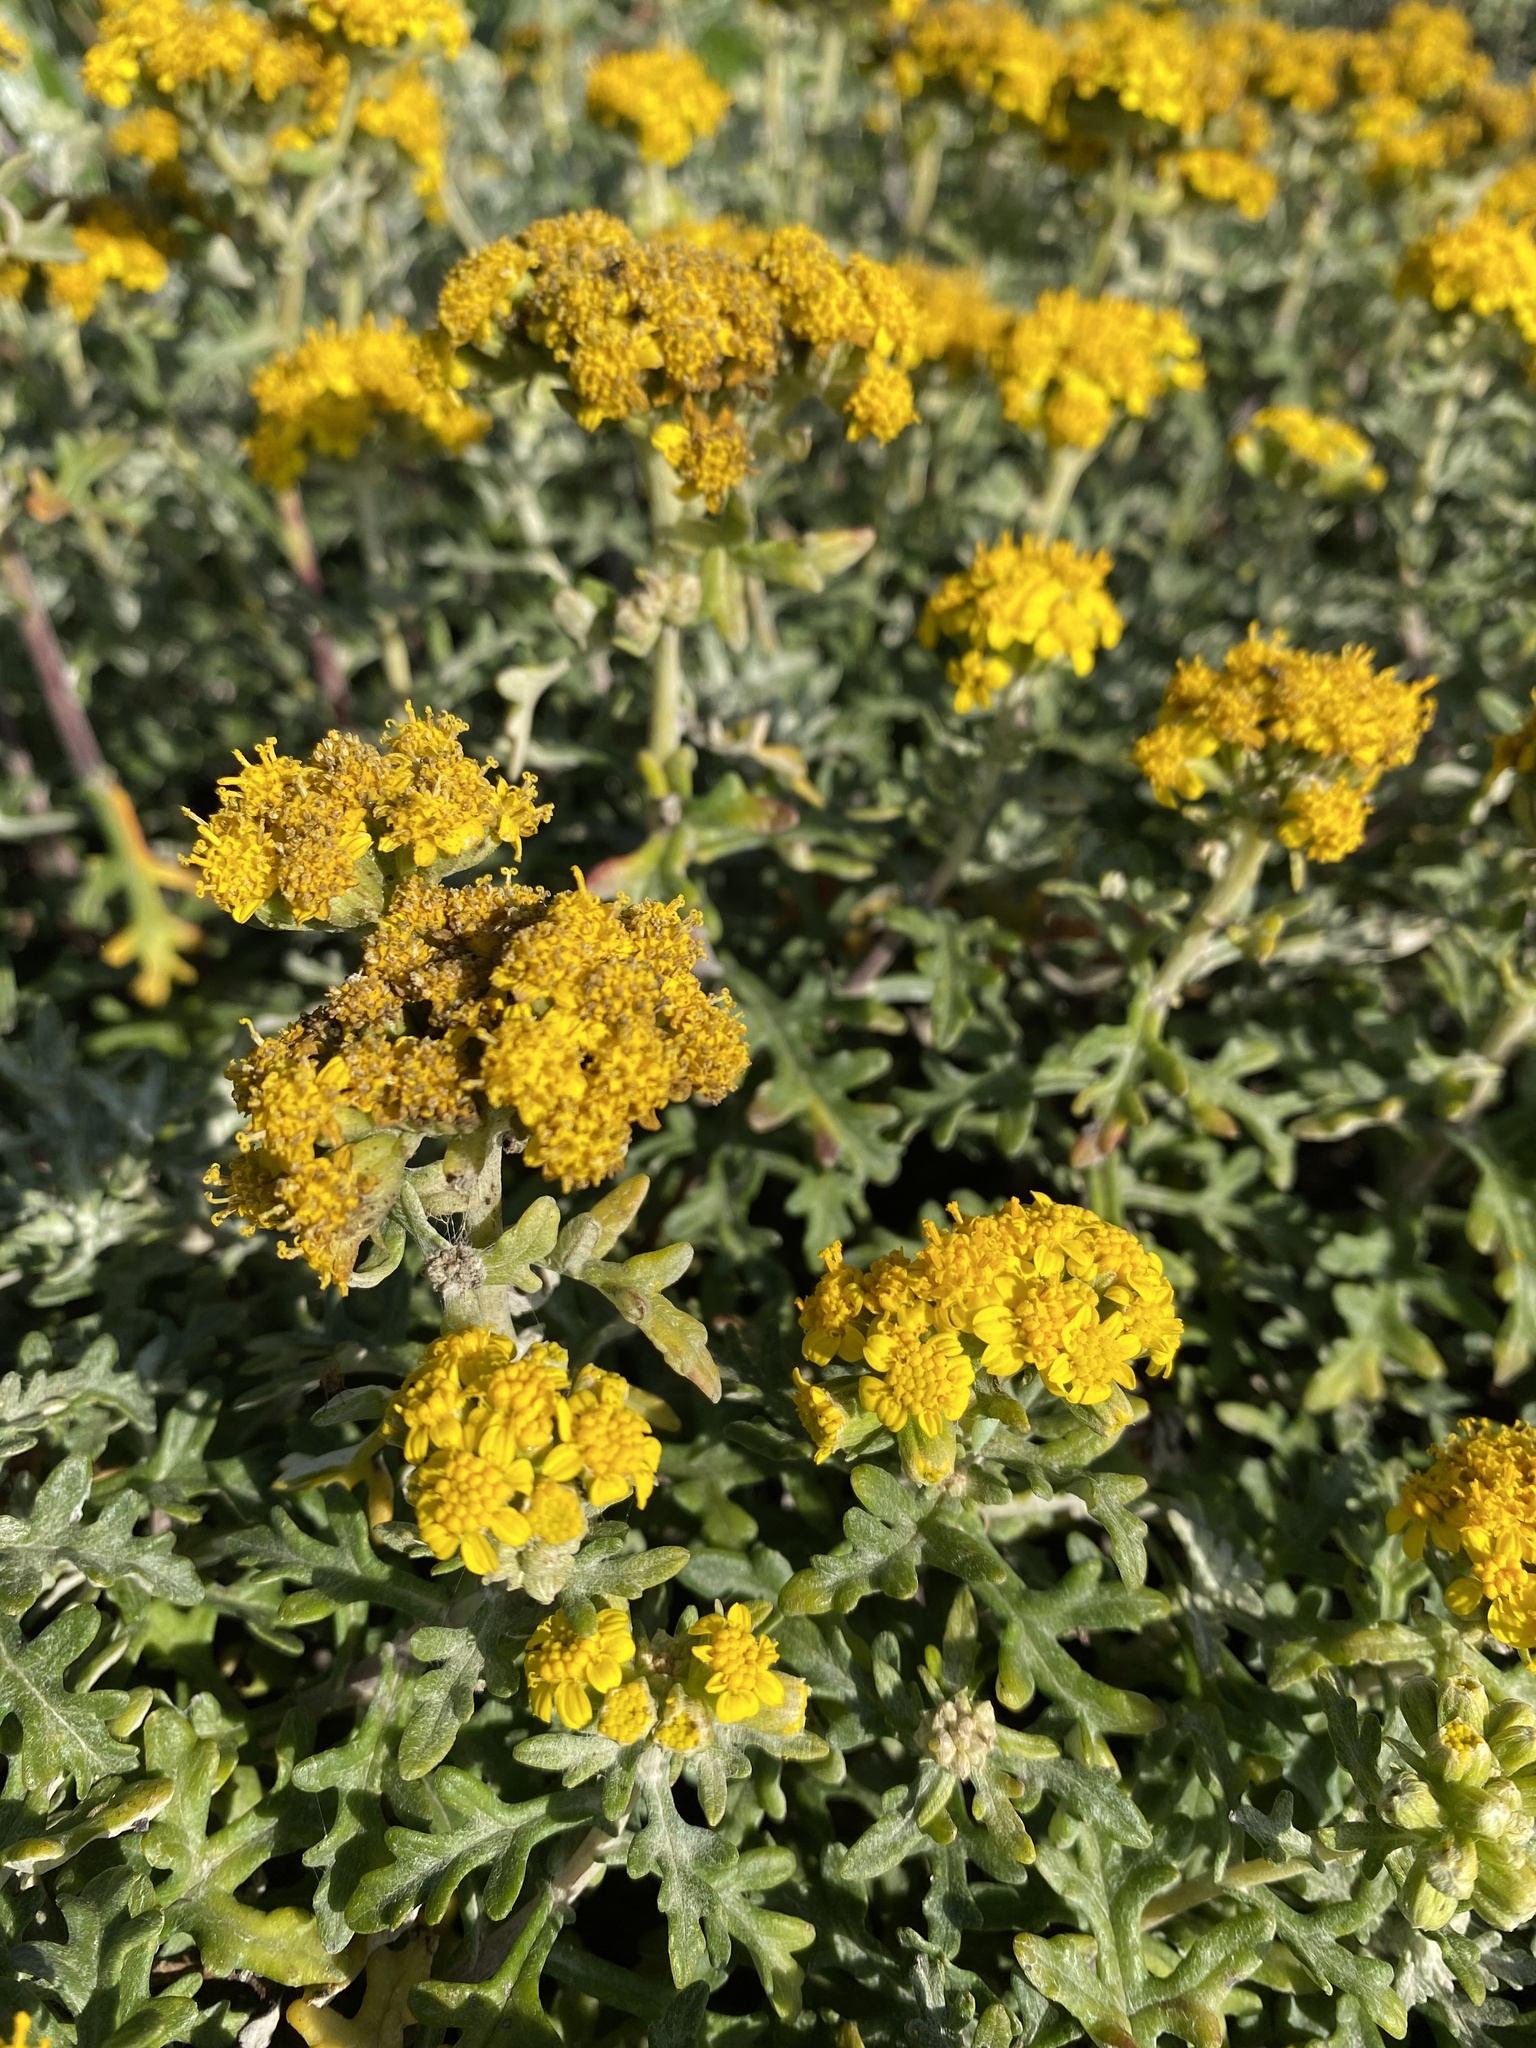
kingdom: Plantae
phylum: Tracheophyta
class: Magnoliopsida
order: Asterales
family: Asteraceae
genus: Eriophyllum
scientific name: Eriophyllum staechadifolium
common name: Lizardtail
